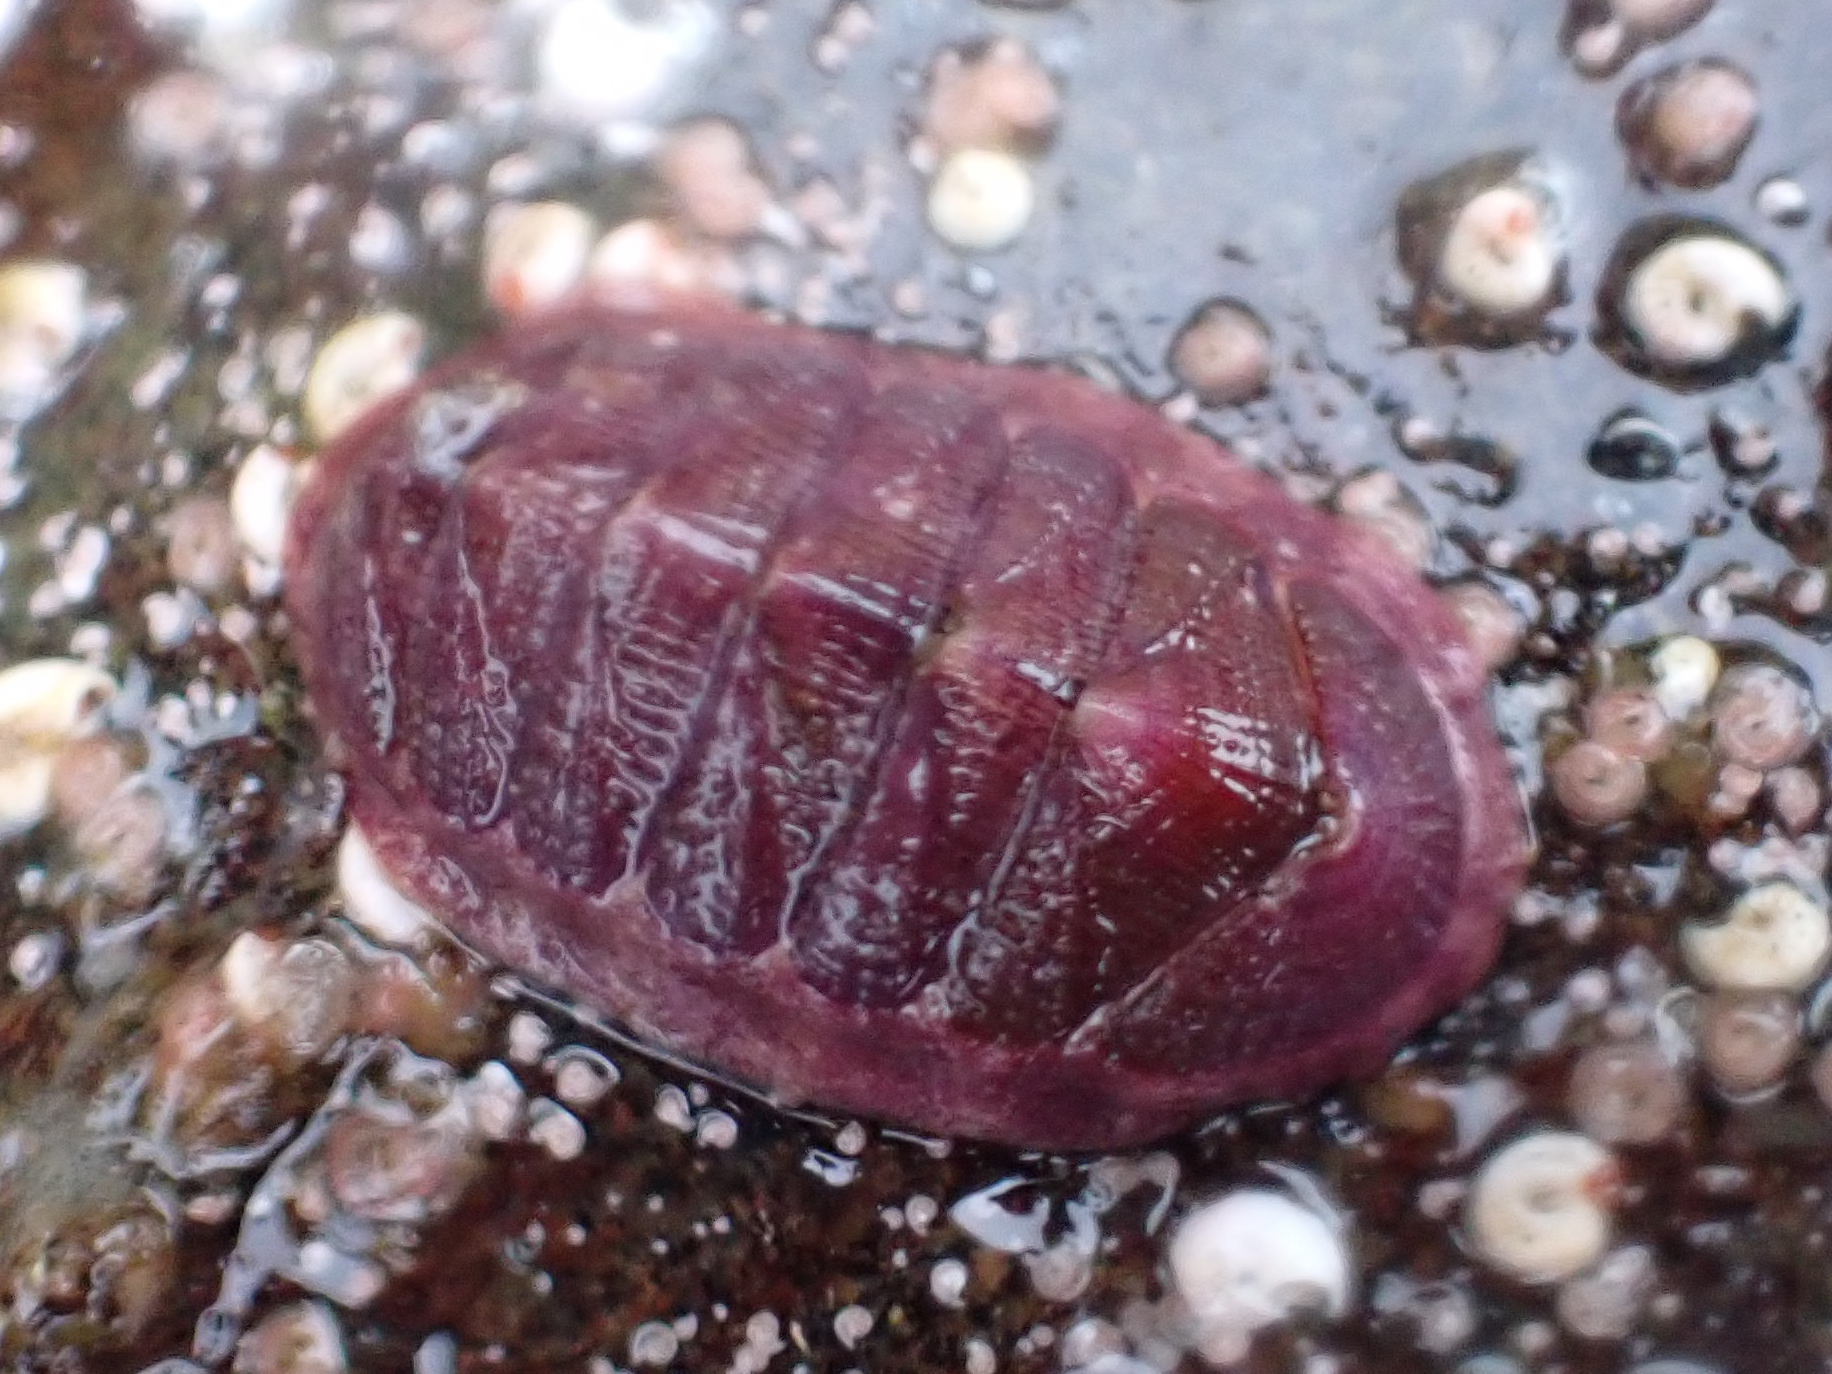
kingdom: Animalia
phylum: Mollusca
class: Polyplacophora
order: Chitonida
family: Ischnochitonidae
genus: Lepidozona
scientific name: Lepidozona mertensii
